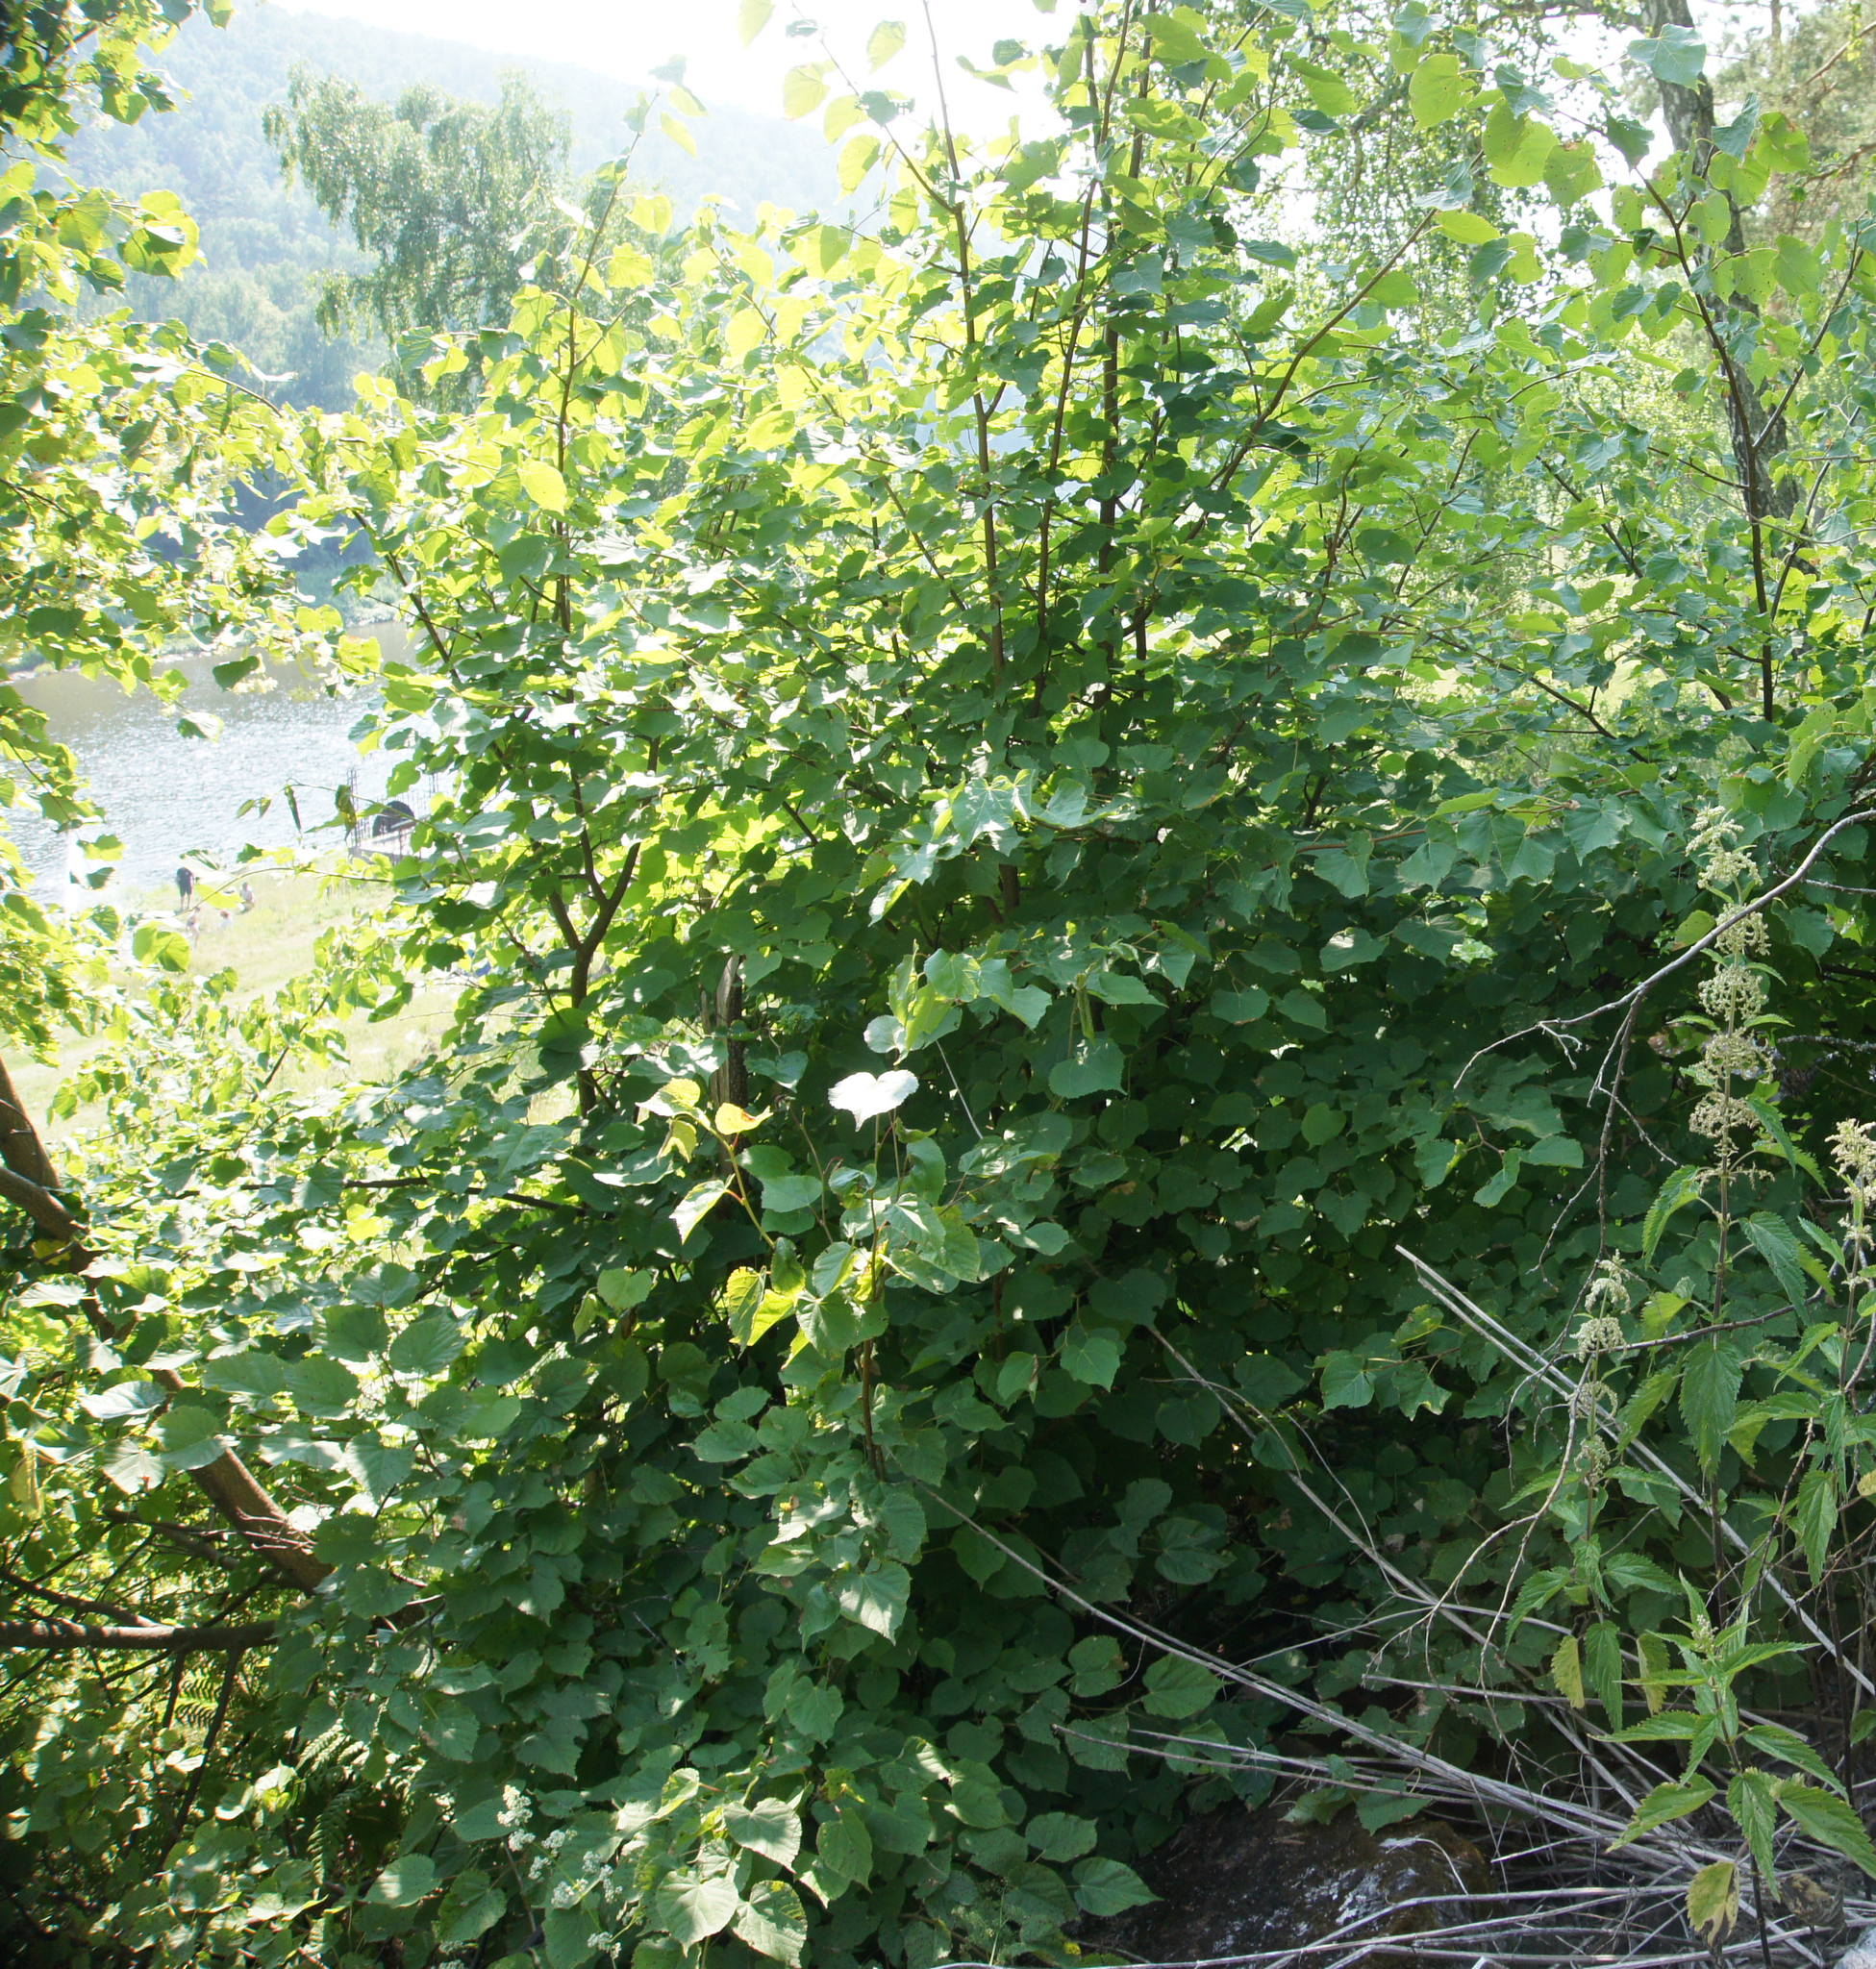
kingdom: Plantae
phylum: Tracheophyta
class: Magnoliopsida
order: Malvales
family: Malvaceae
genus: Tilia
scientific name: Tilia cordata
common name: Small-leaved lime
